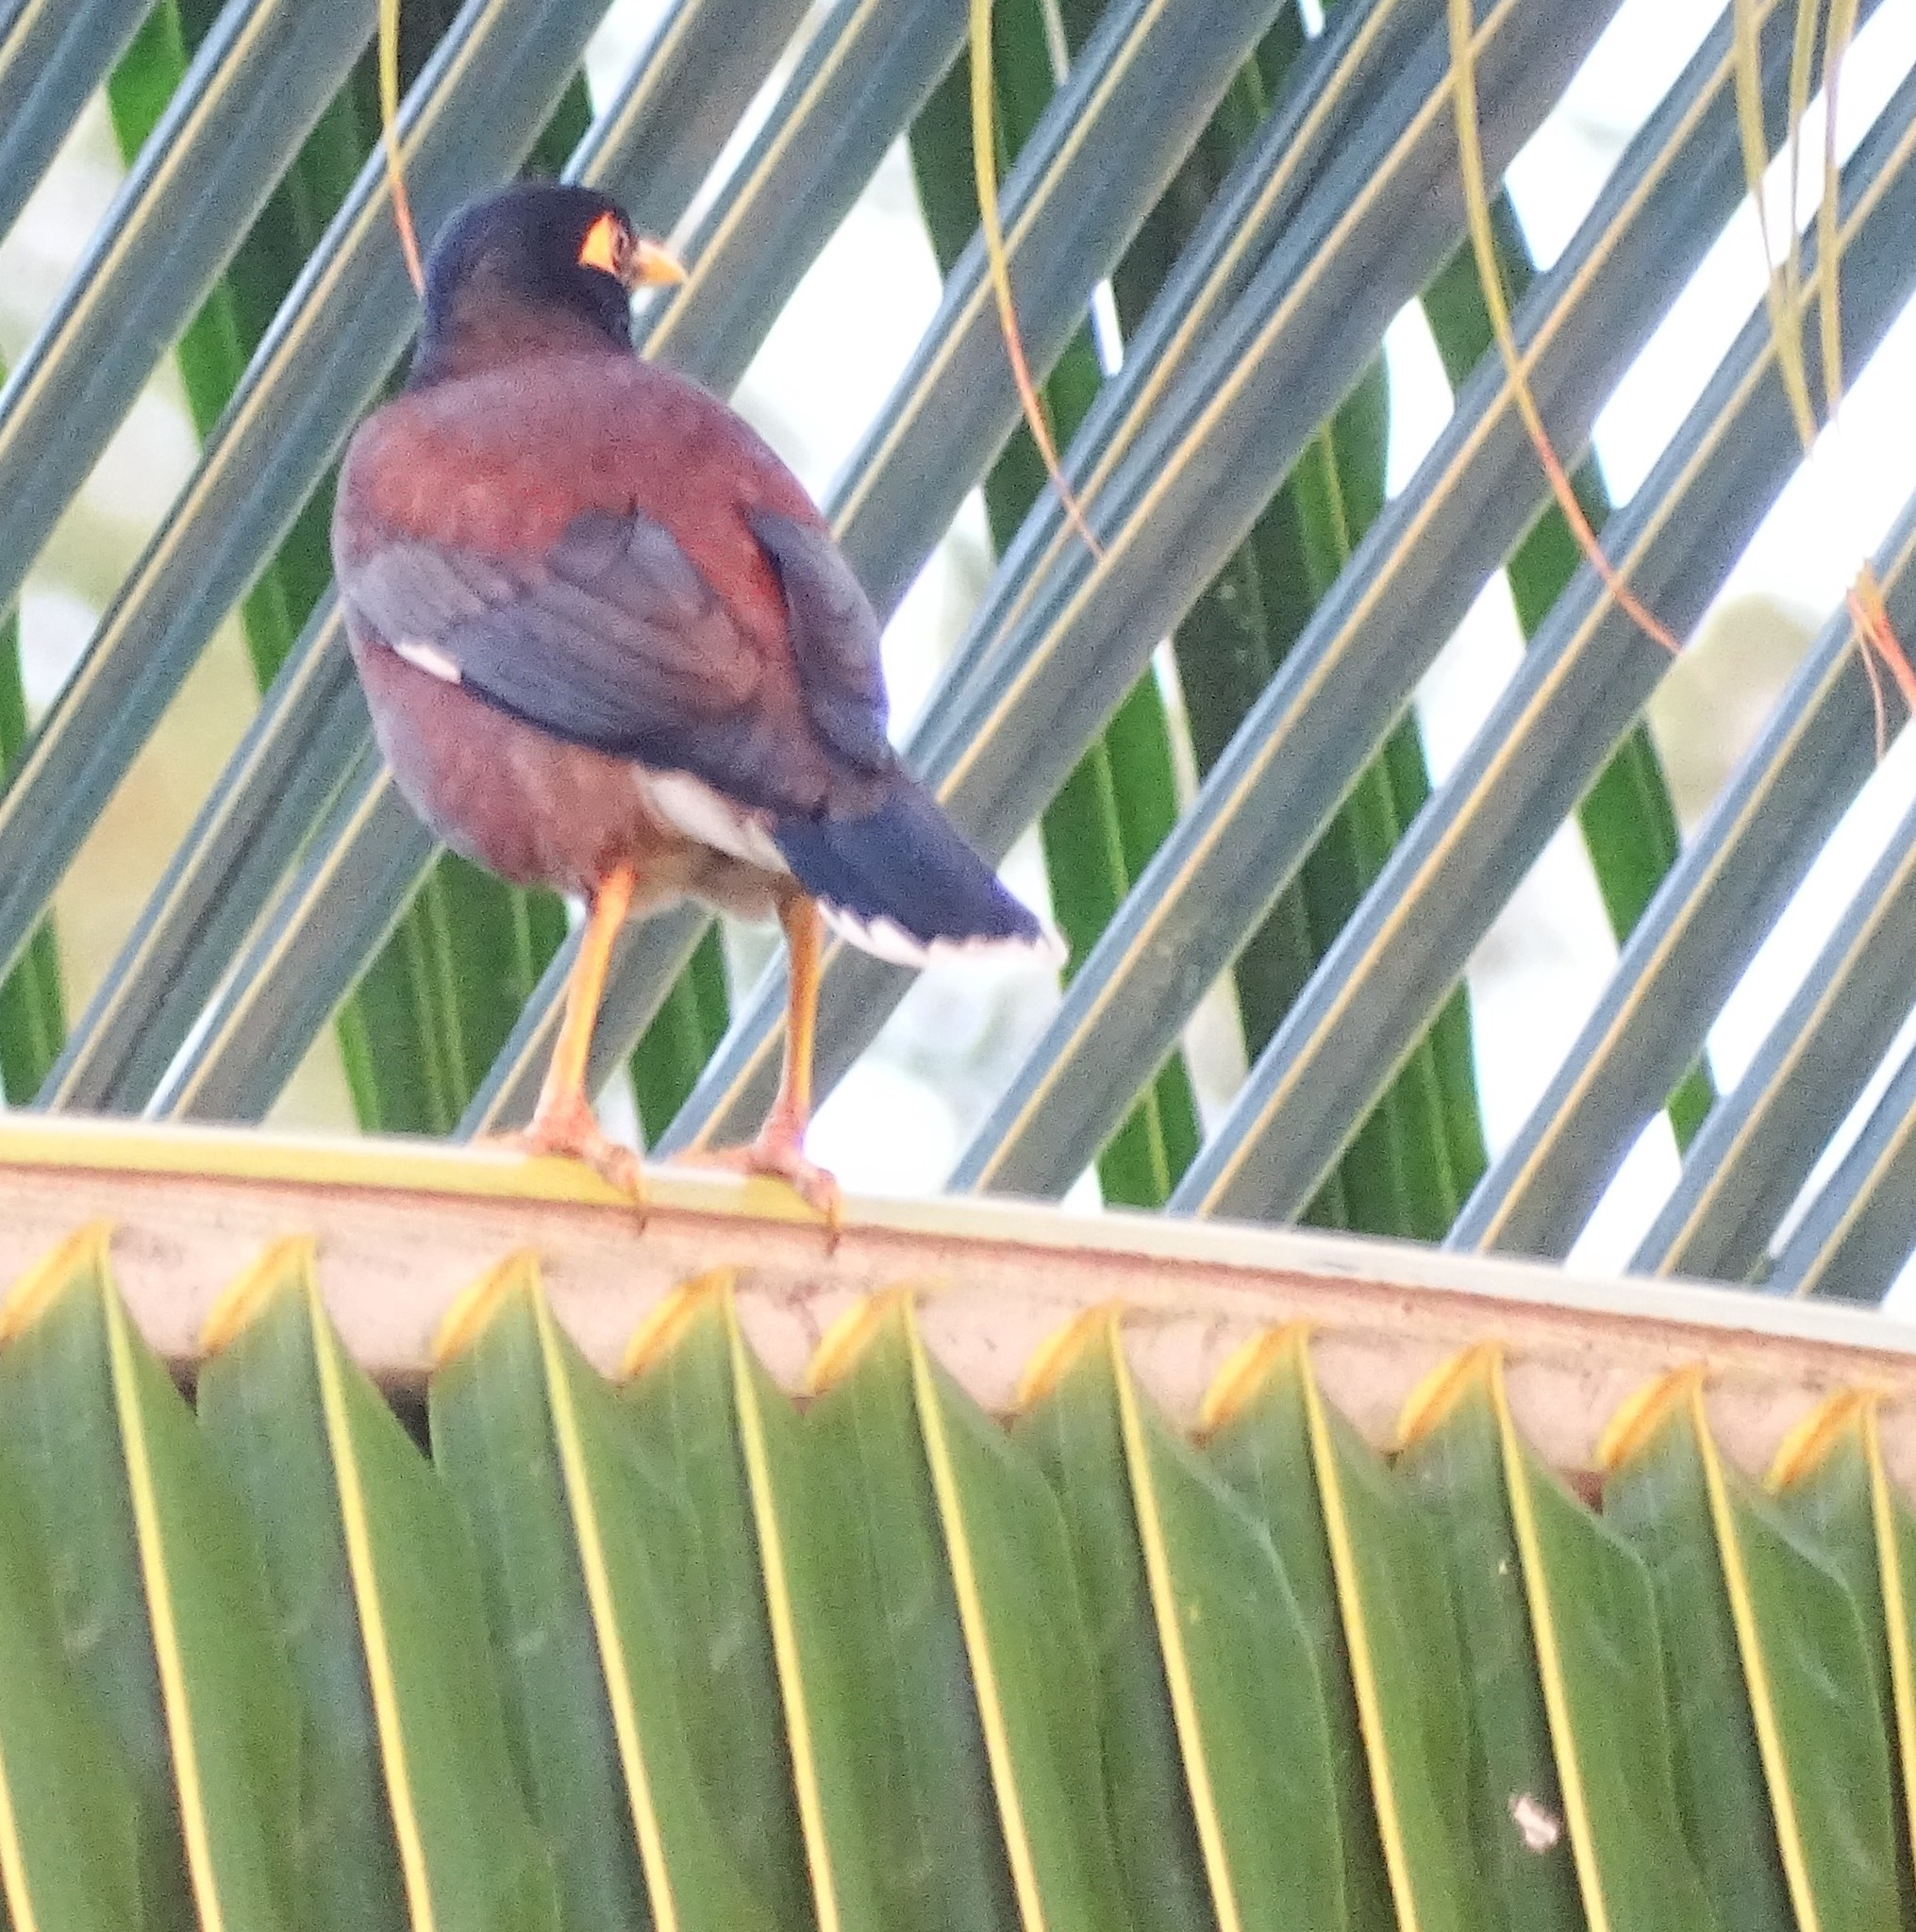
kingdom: Animalia
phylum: Chordata
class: Aves
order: Passeriformes
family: Sturnidae
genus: Acridotheres
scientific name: Acridotheres tristis
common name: Common myna
